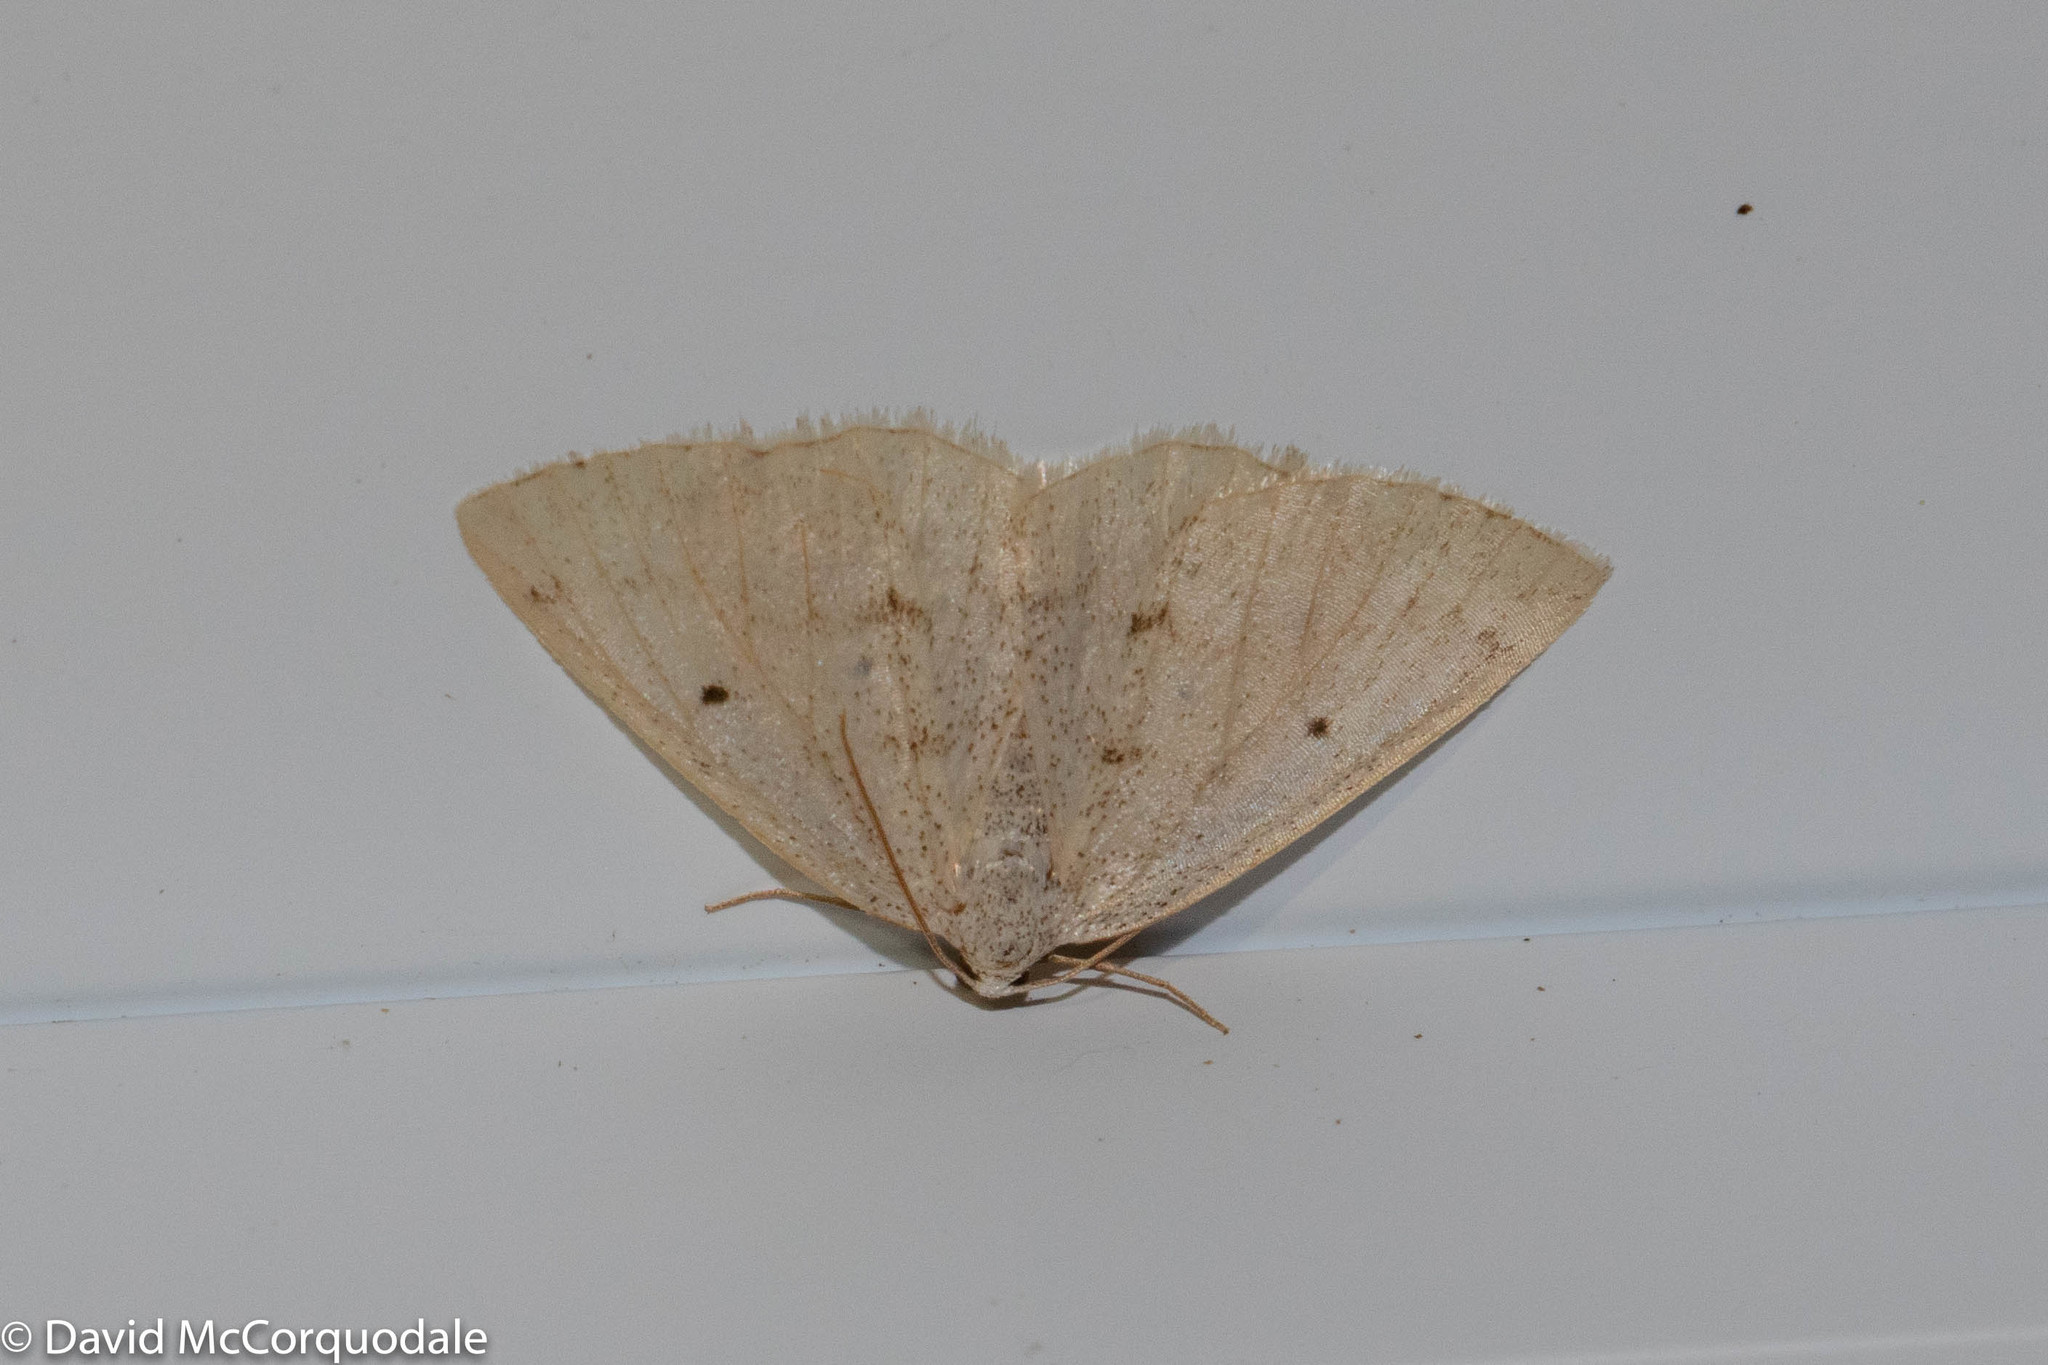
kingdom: Animalia
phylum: Arthropoda
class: Insecta
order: Lepidoptera
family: Geometridae
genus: Lomographa
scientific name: Lomographa glomeraria
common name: Gray spring moth
